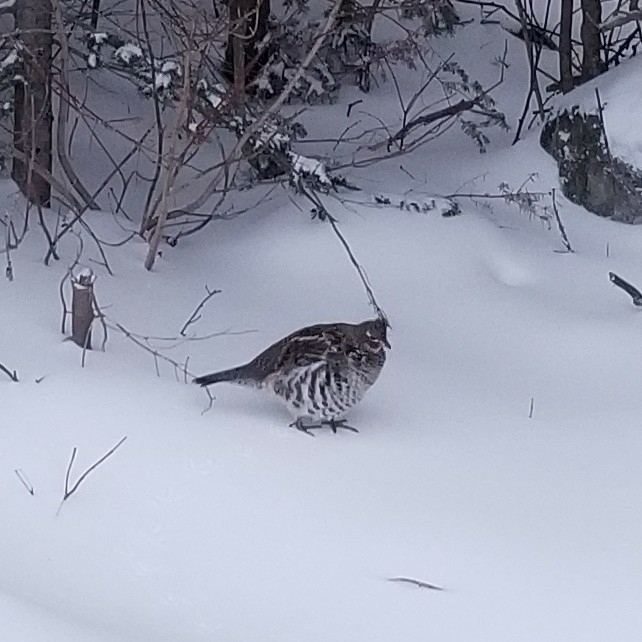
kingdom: Animalia
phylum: Chordata
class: Aves
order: Galliformes
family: Phasianidae
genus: Bonasa
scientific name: Bonasa umbellus
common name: Ruffed grouse
